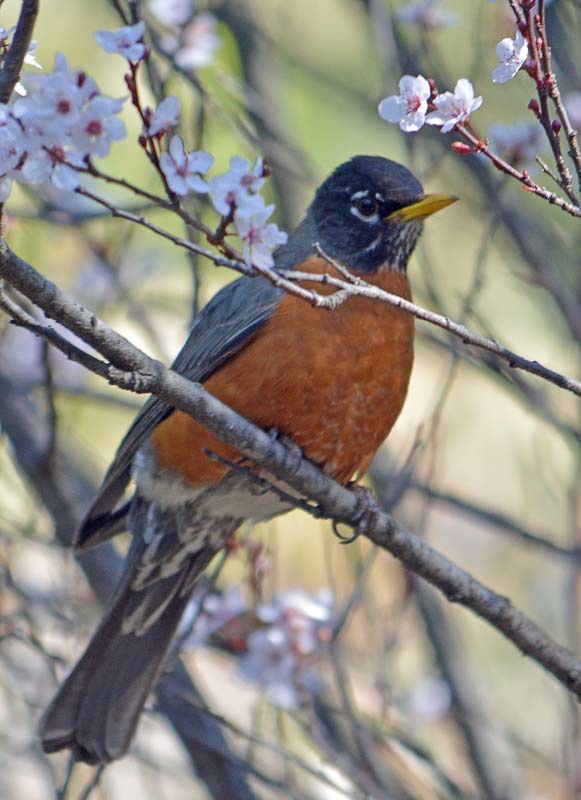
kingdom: Animalia
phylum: Chordata
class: Aves
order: Passeriformes
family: Turdidae
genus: Turdus
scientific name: Turdus migratorius
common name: American robin
